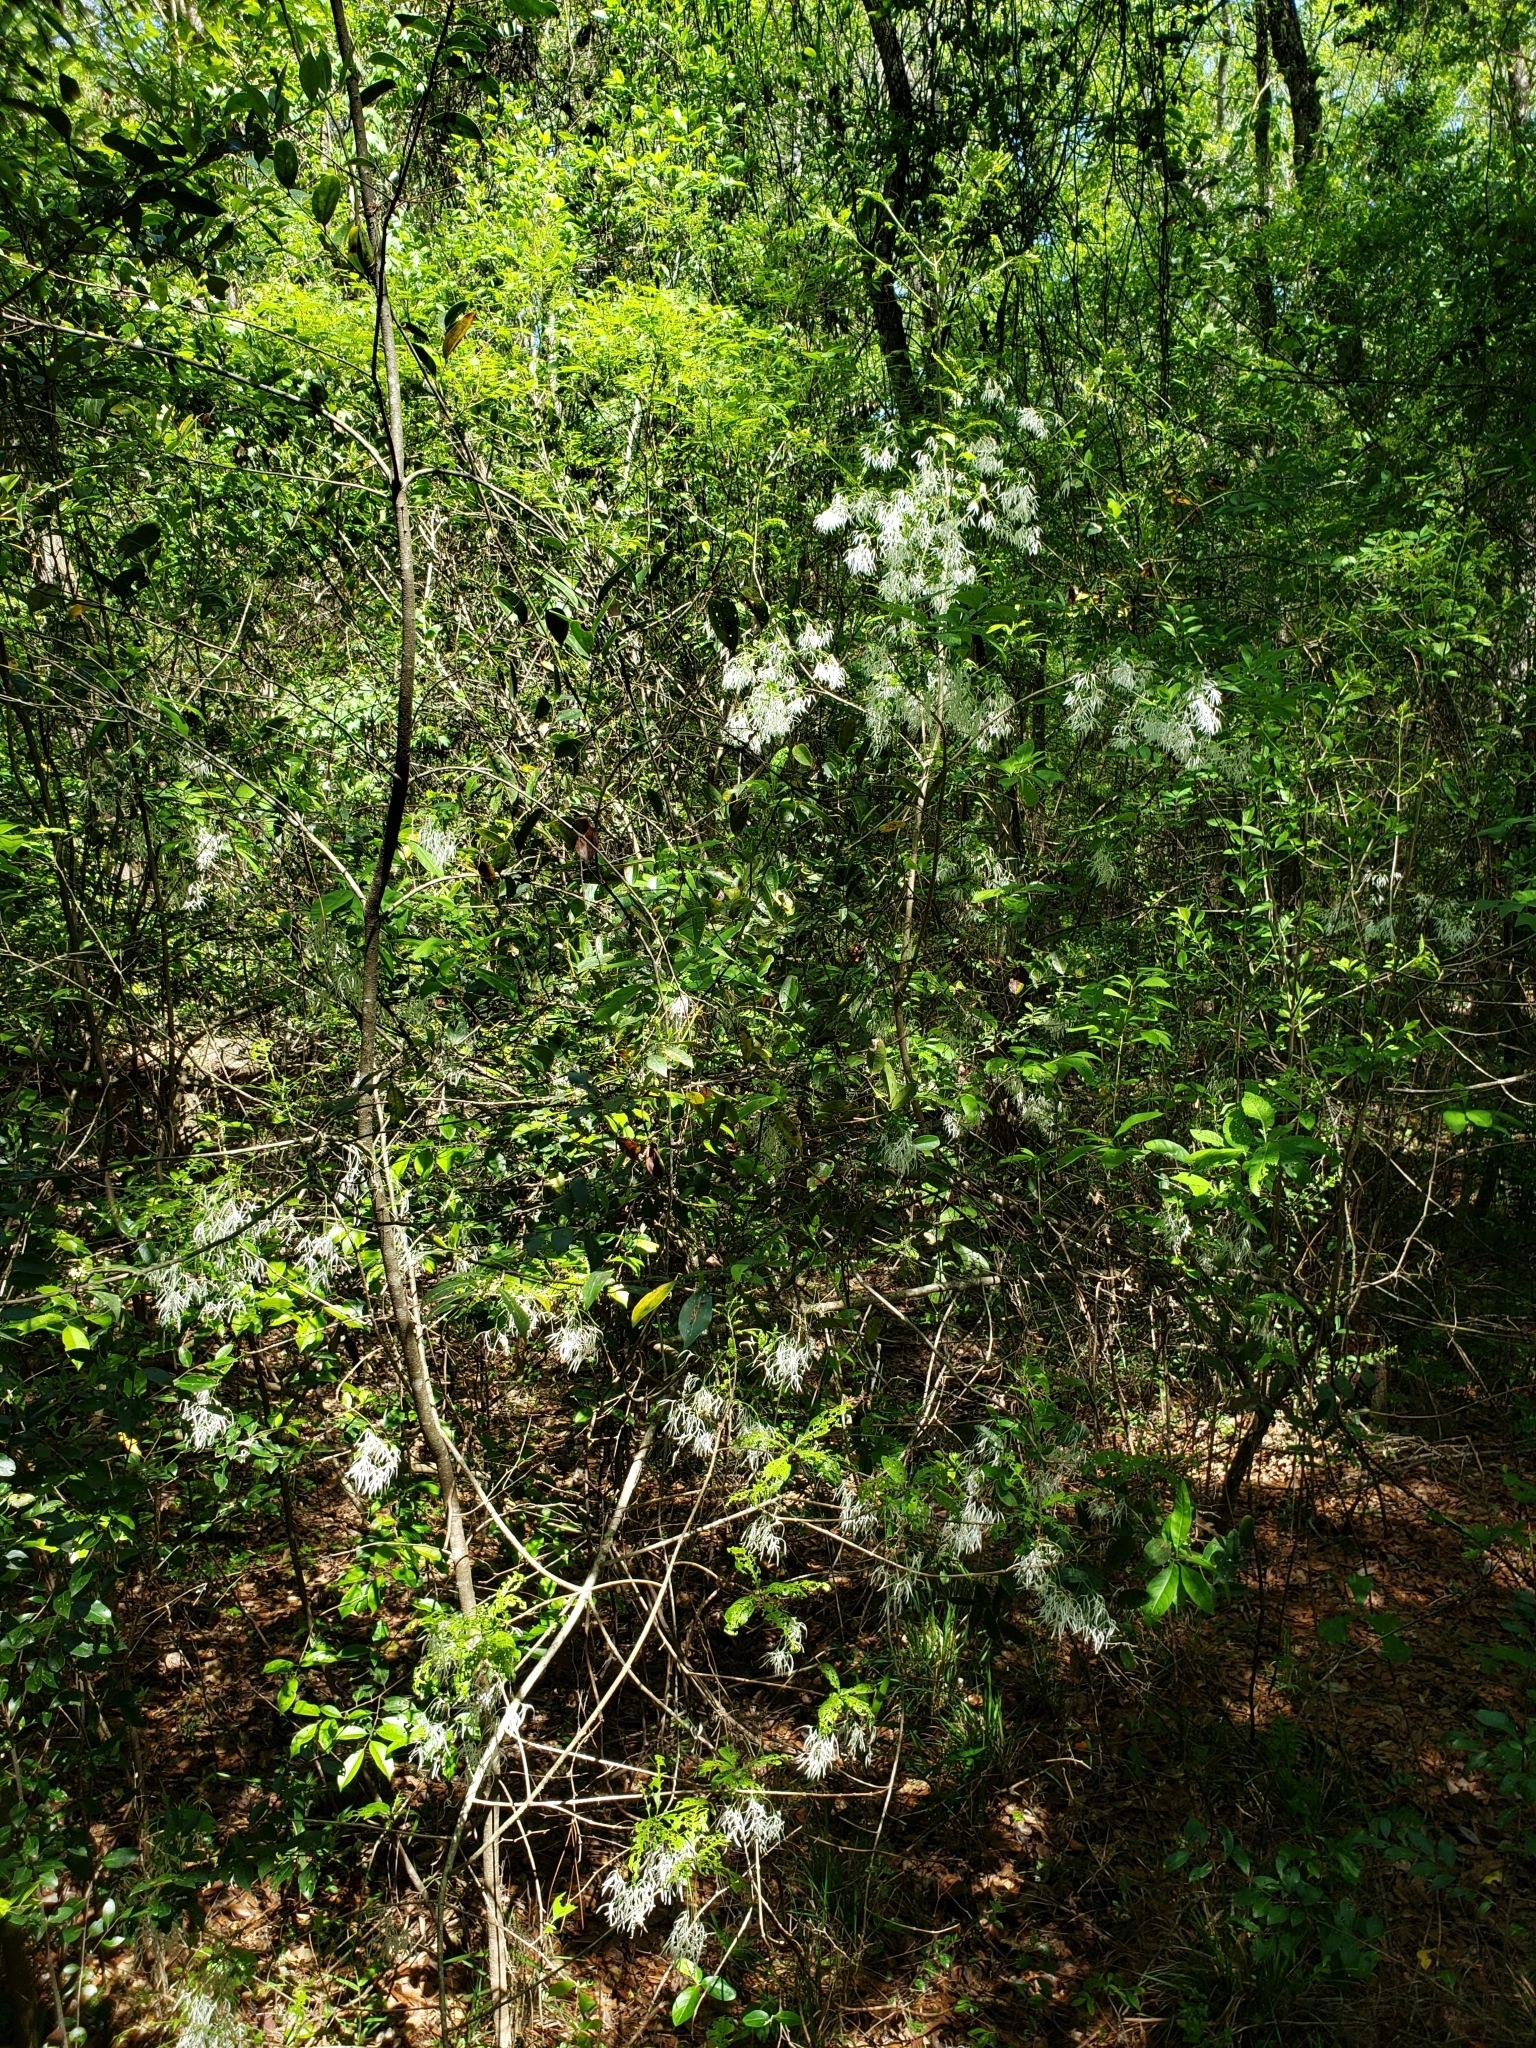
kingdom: Plantae
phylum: Tracheophyta
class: Magnoliopsida
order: Lamiales
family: Oleaceae
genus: Chionanthus
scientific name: Chionanthus virginicus
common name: American fringetree
